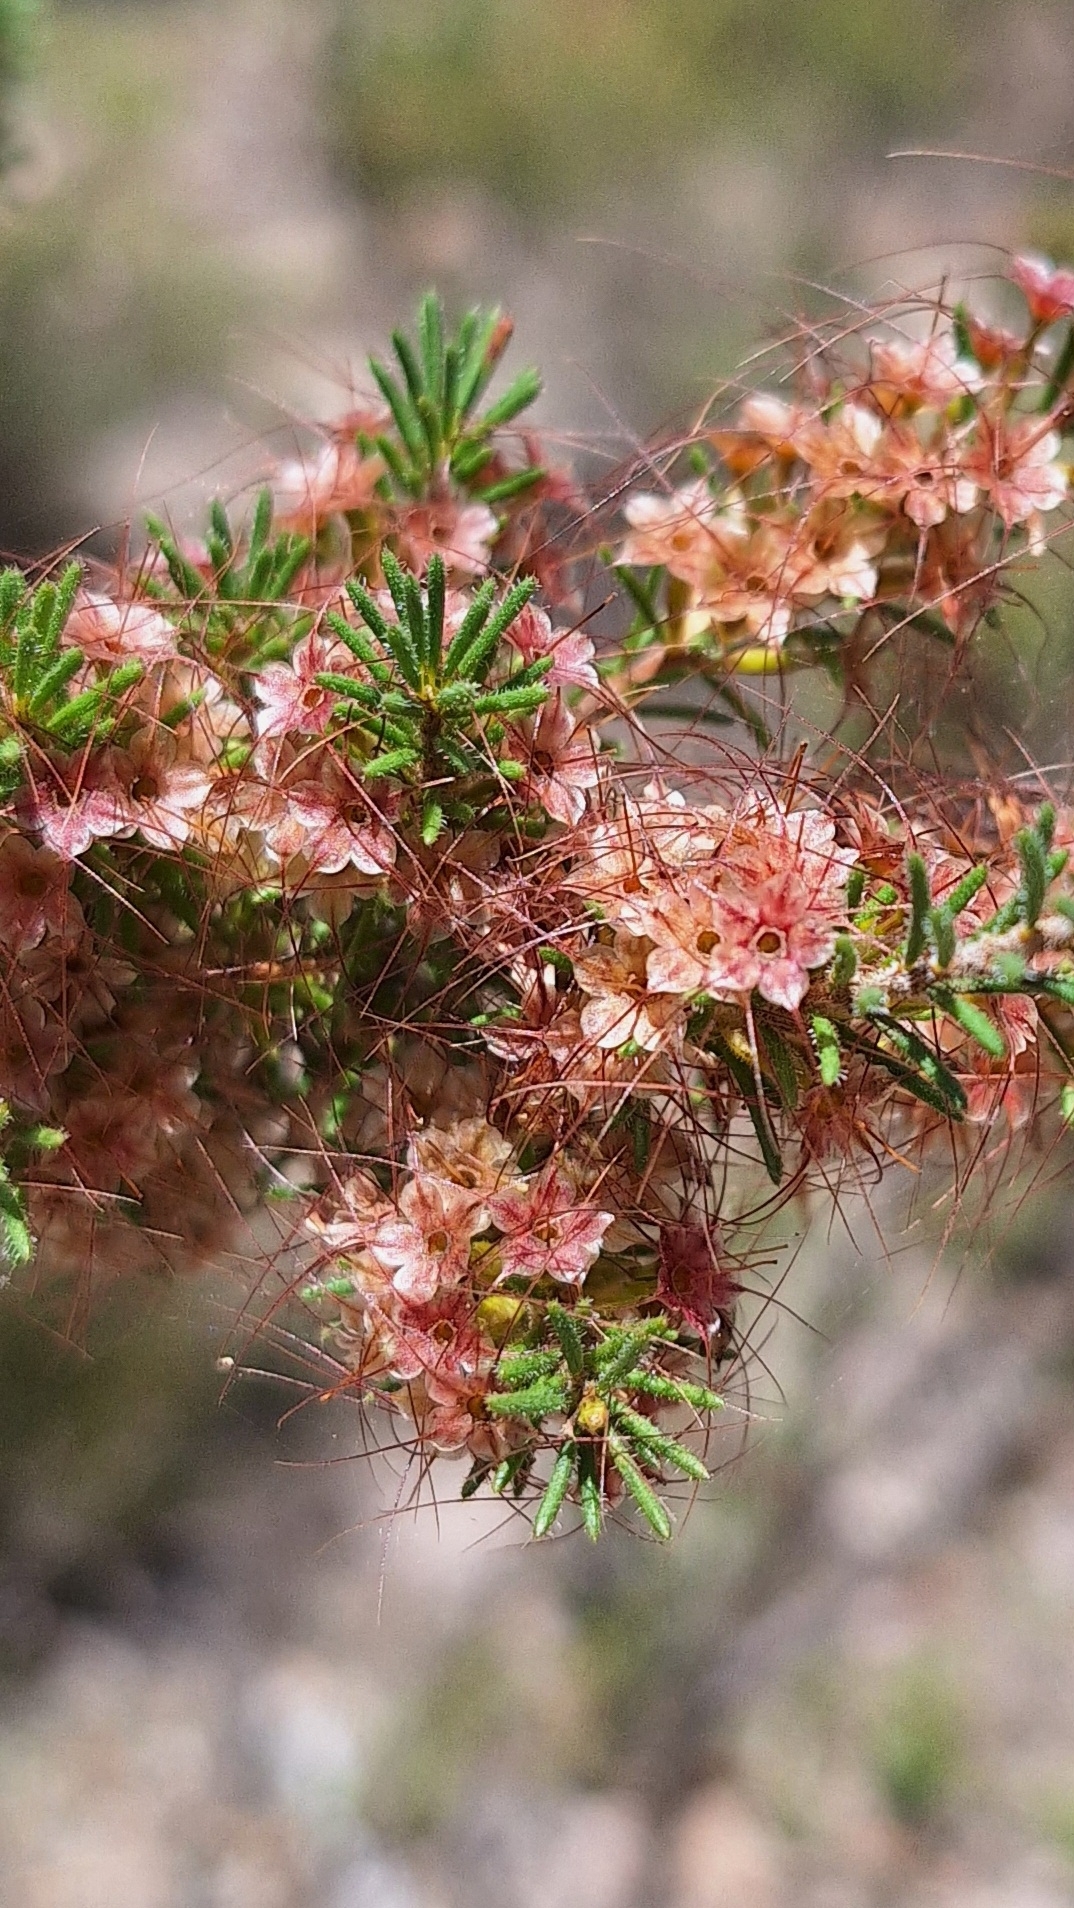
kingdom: Plantae
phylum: Tracheophyta
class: Magnoliopsida
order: Myrtales
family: Myrtaceae
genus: Calytrix
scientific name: Calytrix tetragona
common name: Common fringe myrtle
